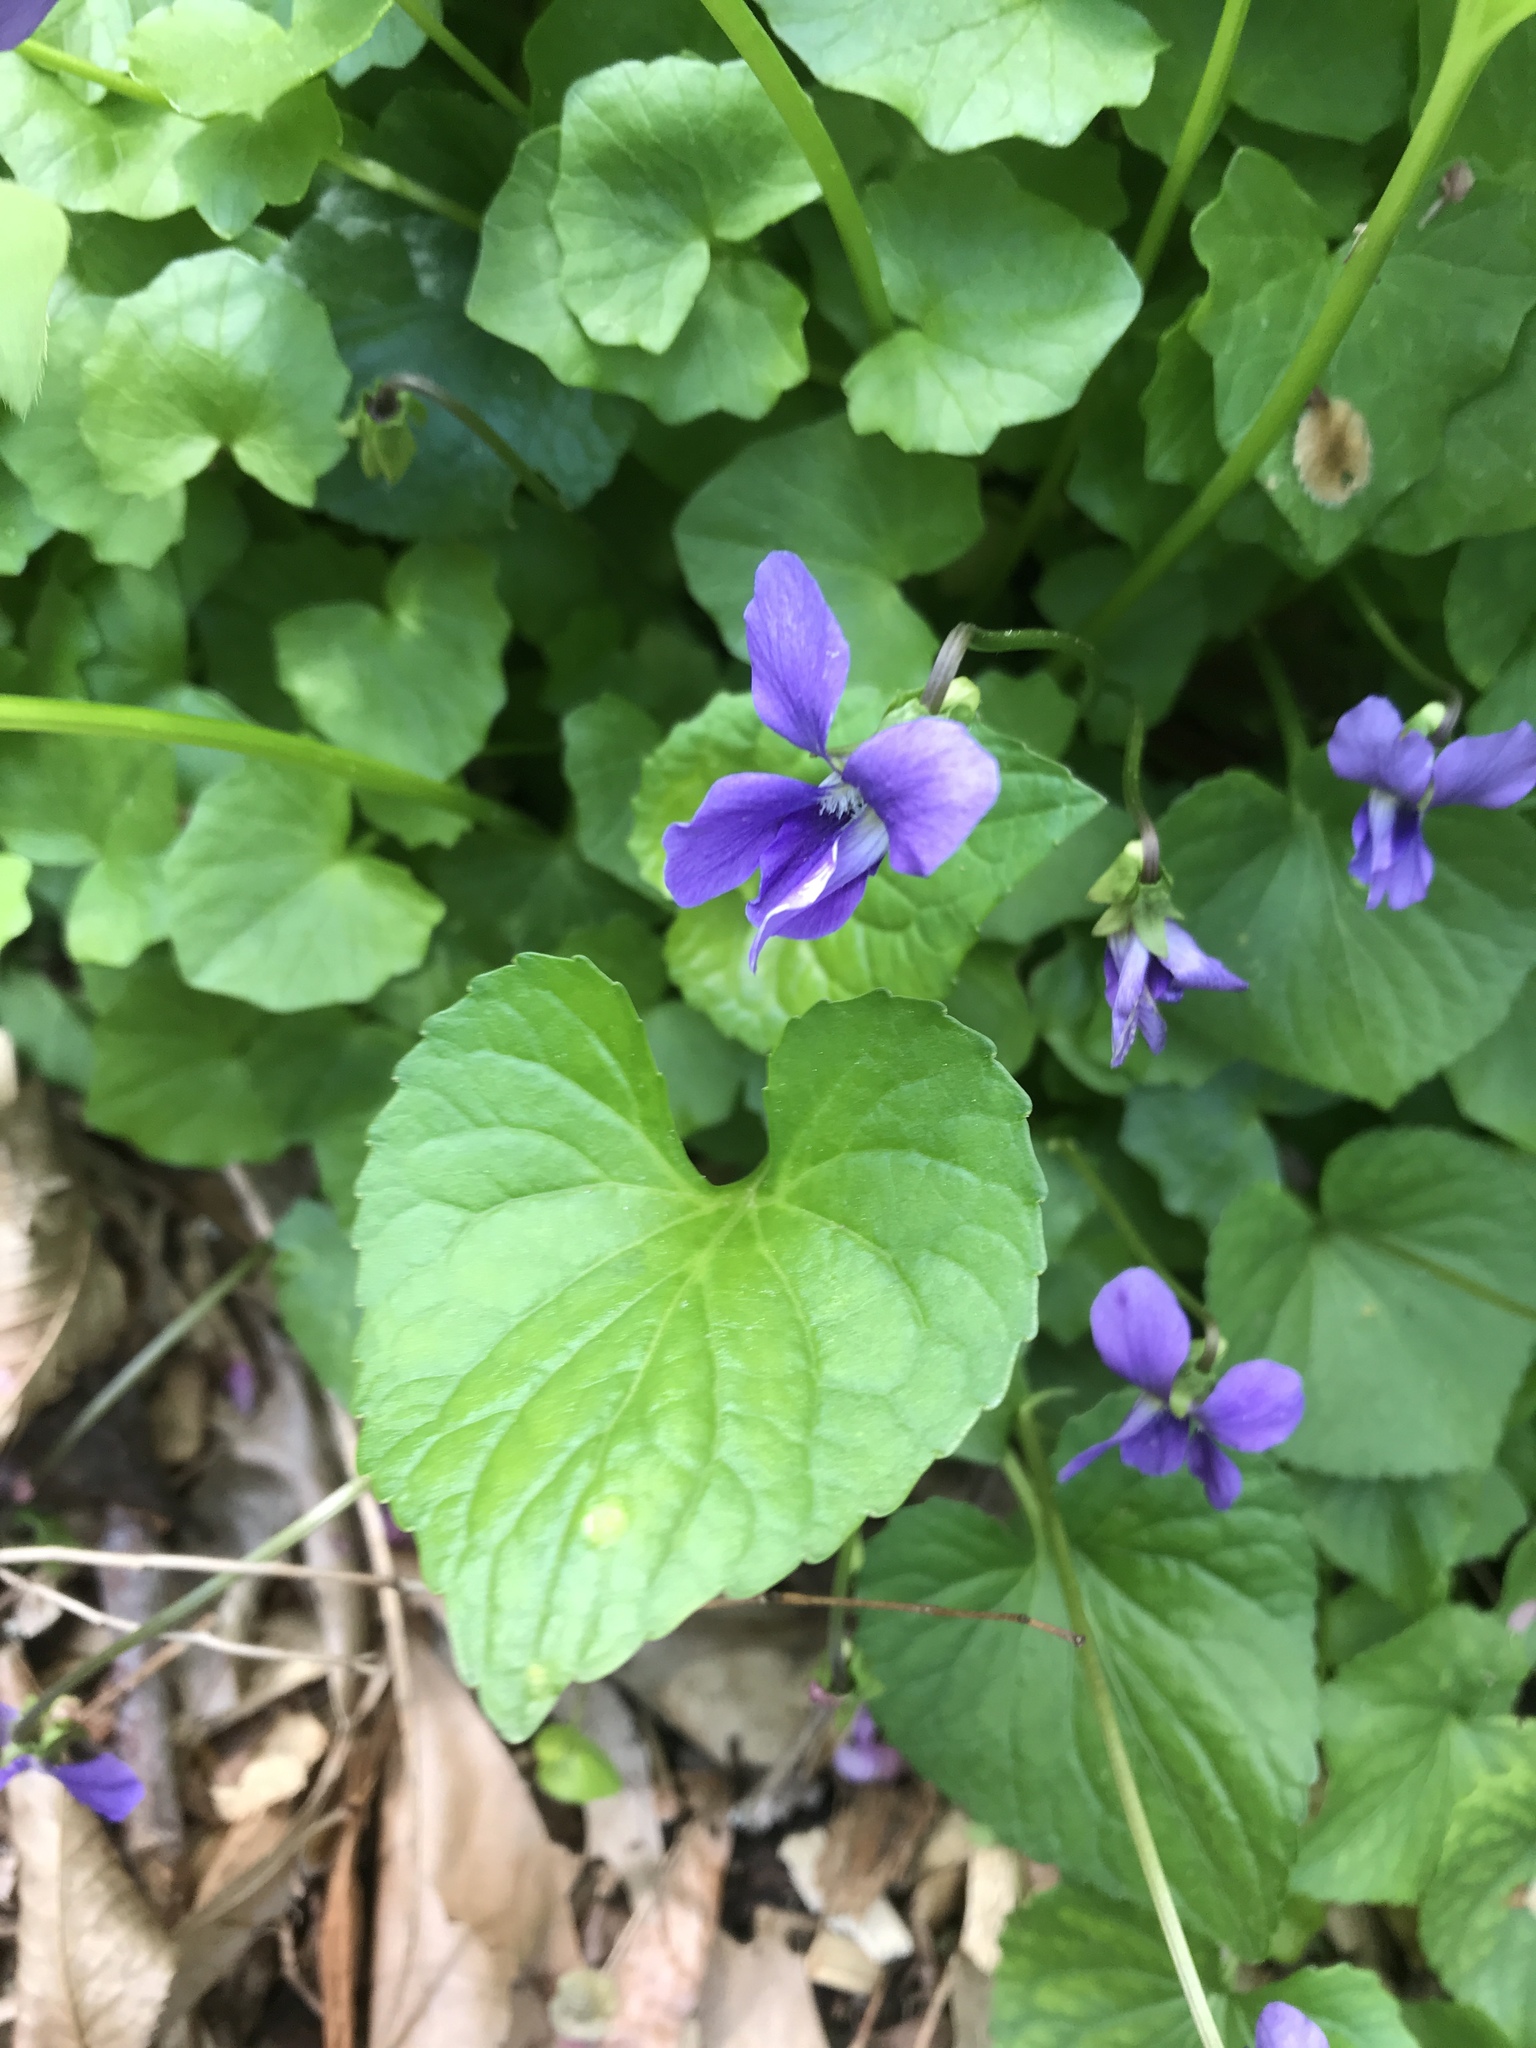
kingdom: Plantae
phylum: Tracheophyta
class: Magnoliopsida
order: Malpighiales
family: Violaceae
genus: Viola
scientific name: Viola sororia
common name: Dooryard violet
